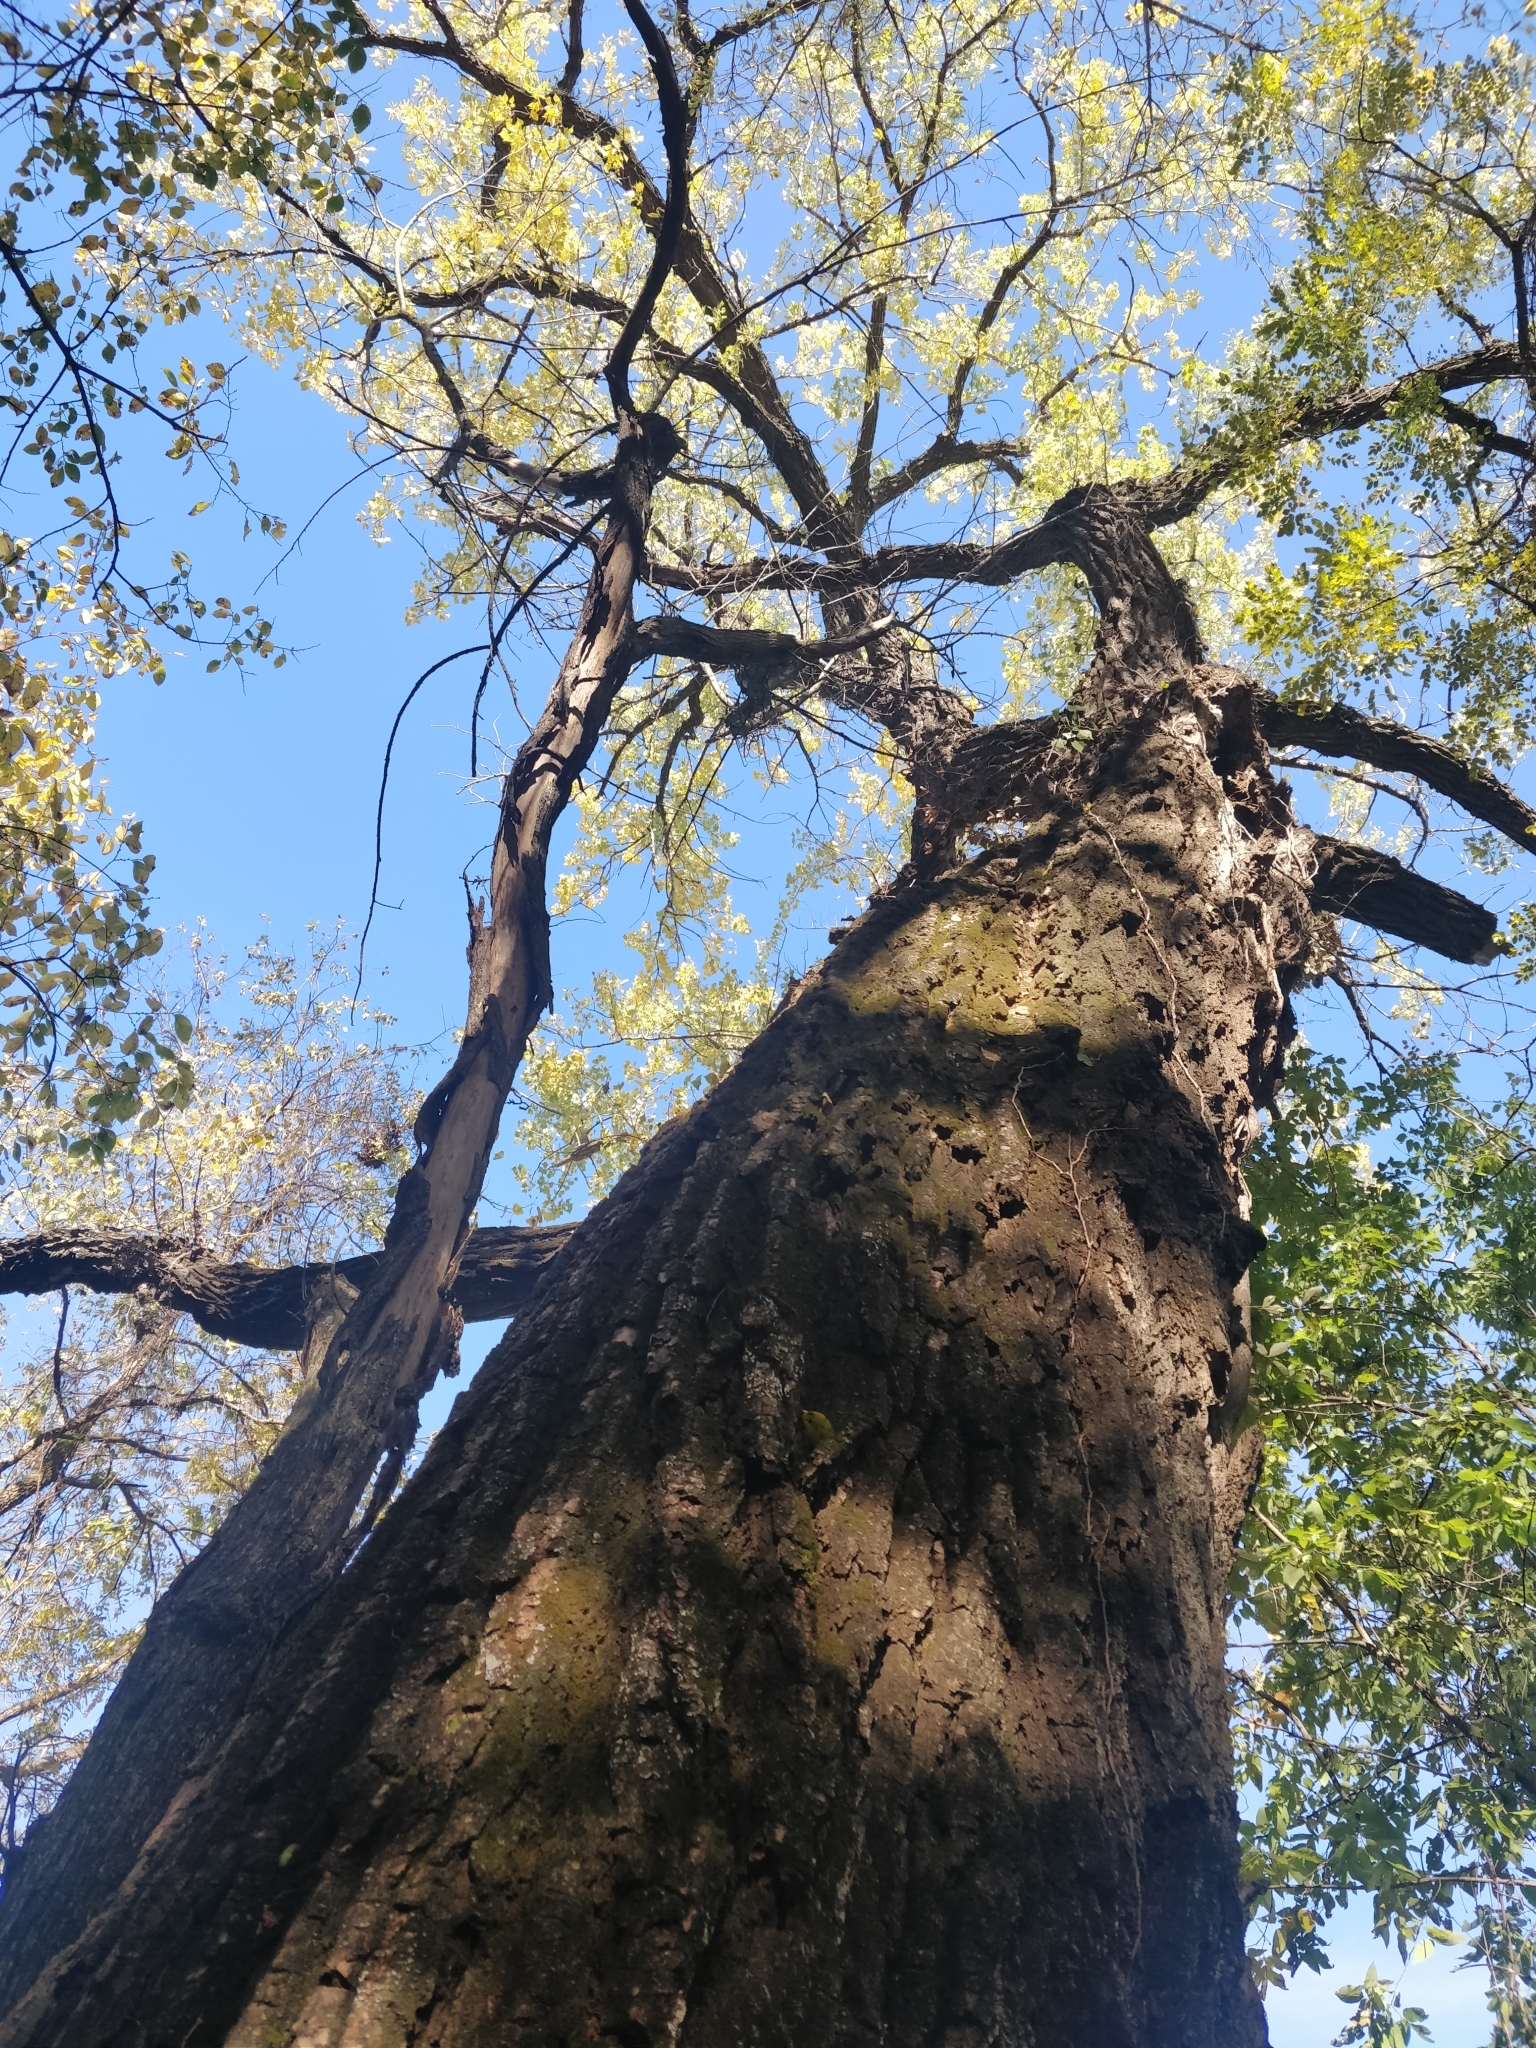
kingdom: Plantae
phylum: Tracheophyta
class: Magnoliopsida
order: Malpighiales
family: Salicaceae
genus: Populus
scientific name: Populus deltoides
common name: Eastern cottonwood
